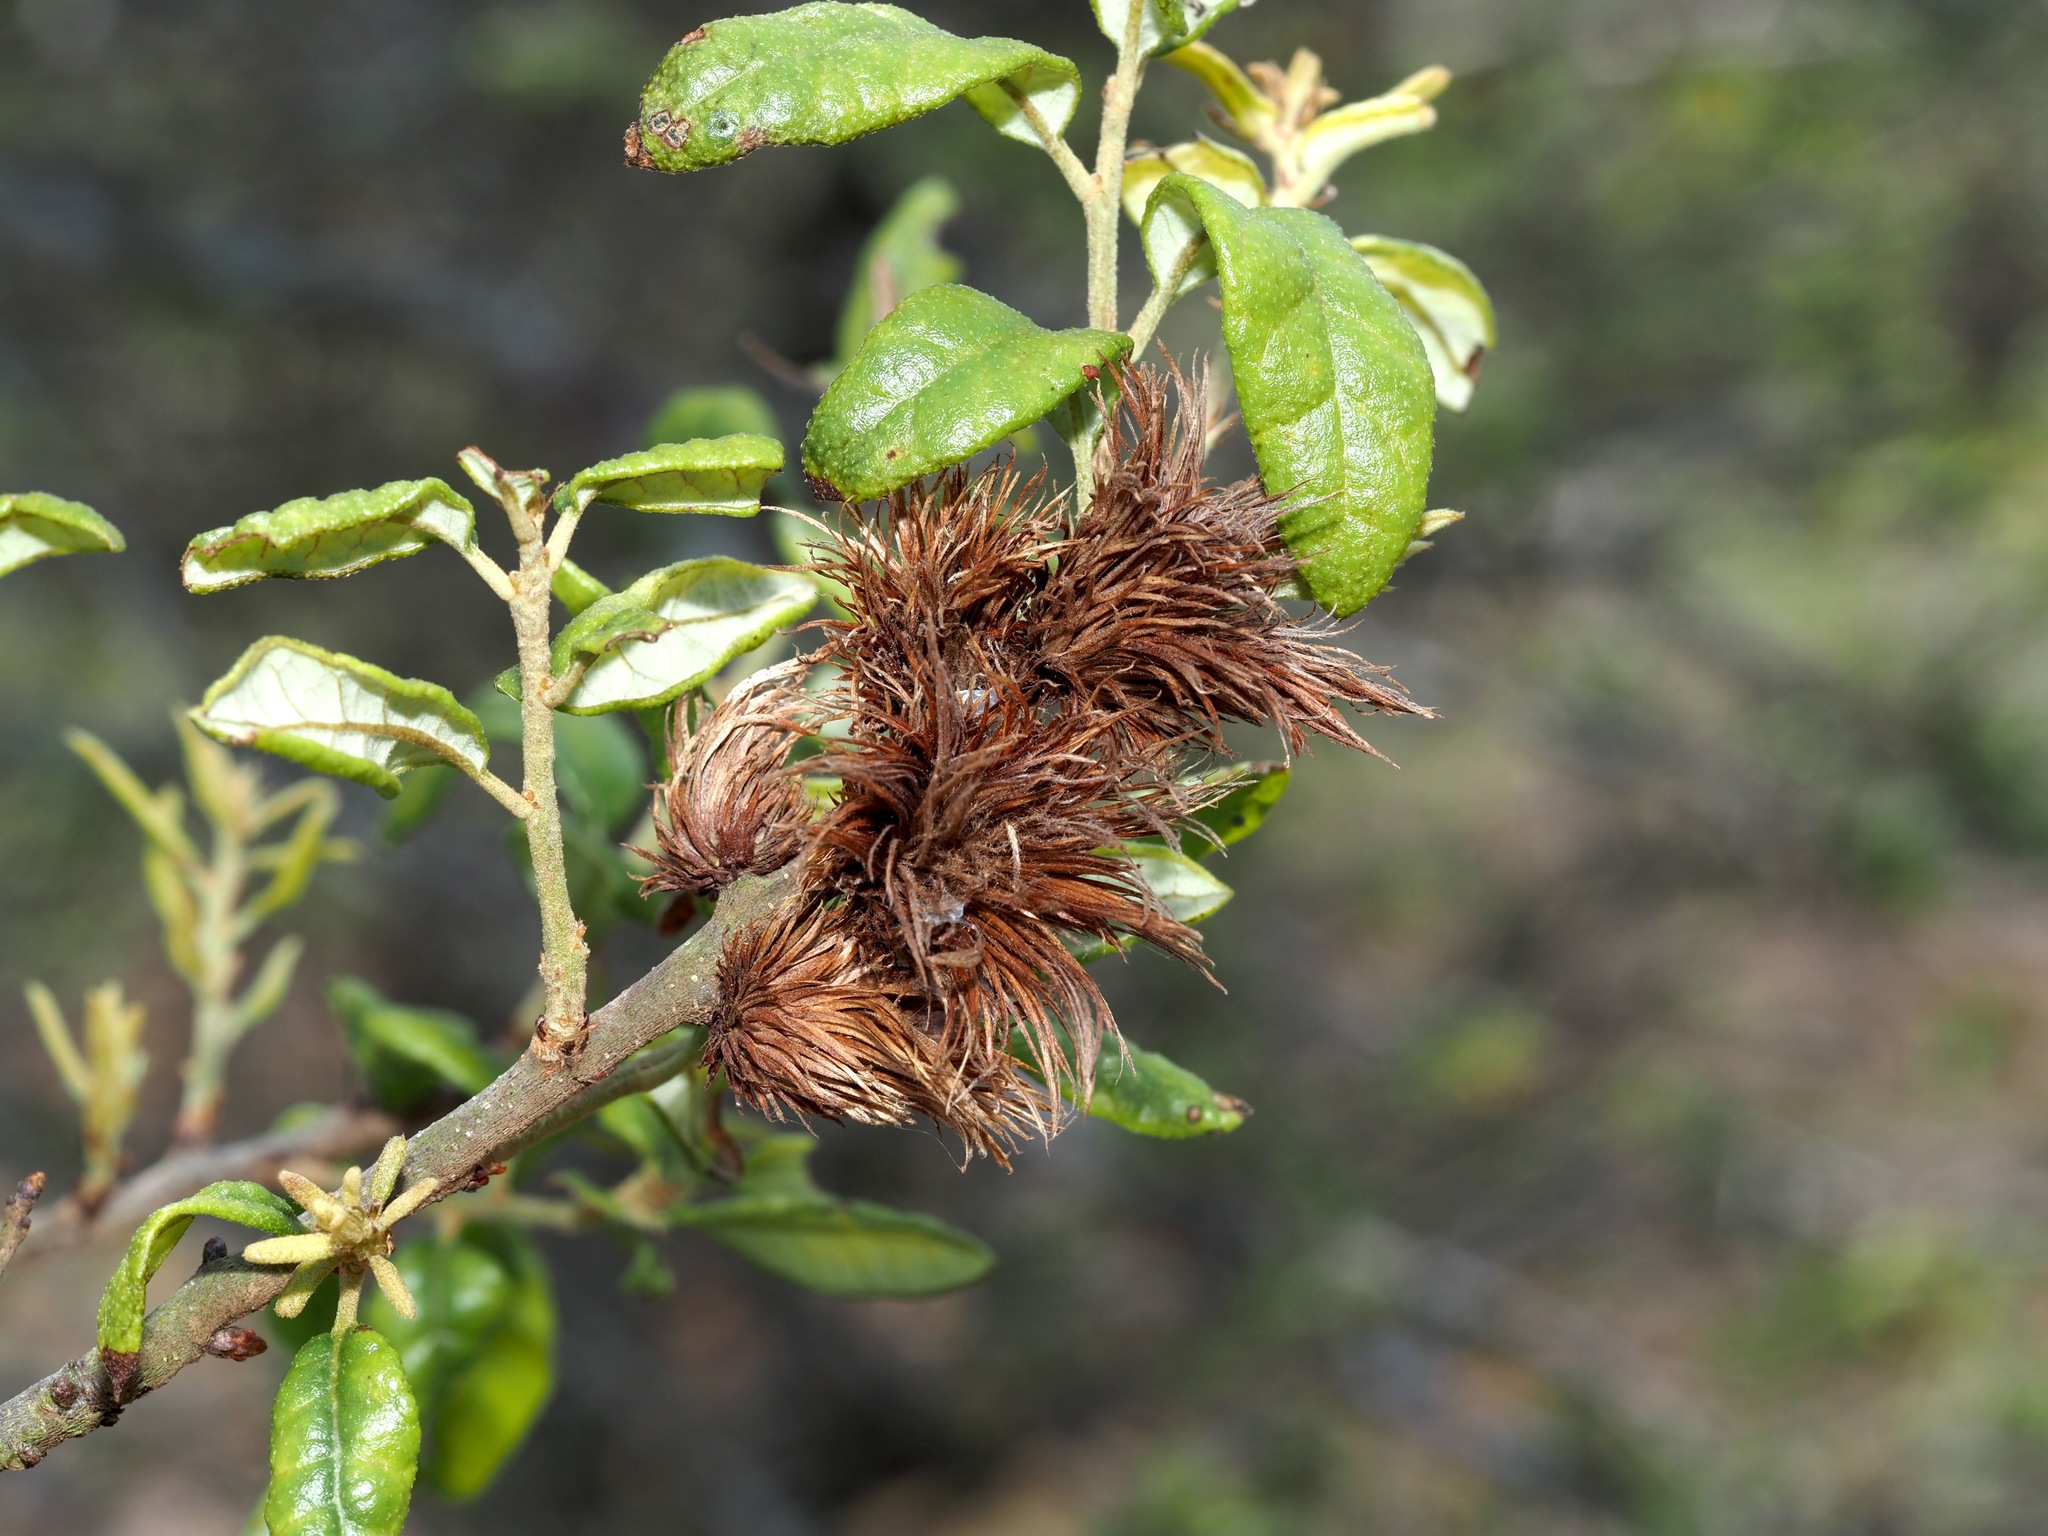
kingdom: Animalia
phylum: Arthropoda
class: Insecta
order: Hymenoptera
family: Cynipidae
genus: Andricus
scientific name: Andricus quercusfoliatus
